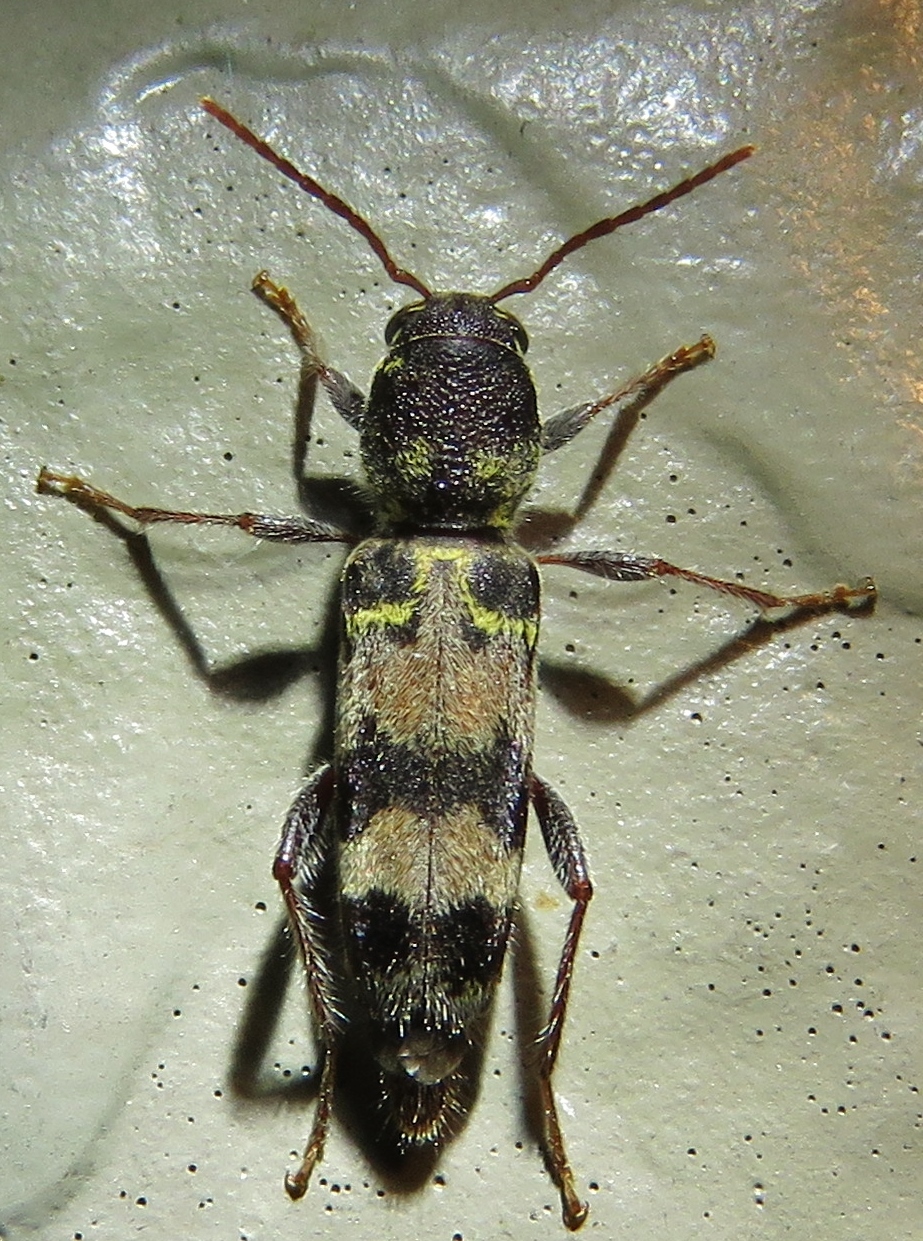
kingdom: Animalia
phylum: Arthropoda
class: Insecta
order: Coleoptera
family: Cerambycidae
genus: Xylotrechus
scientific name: Xylotrechus colonus
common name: Long-horned beetle
